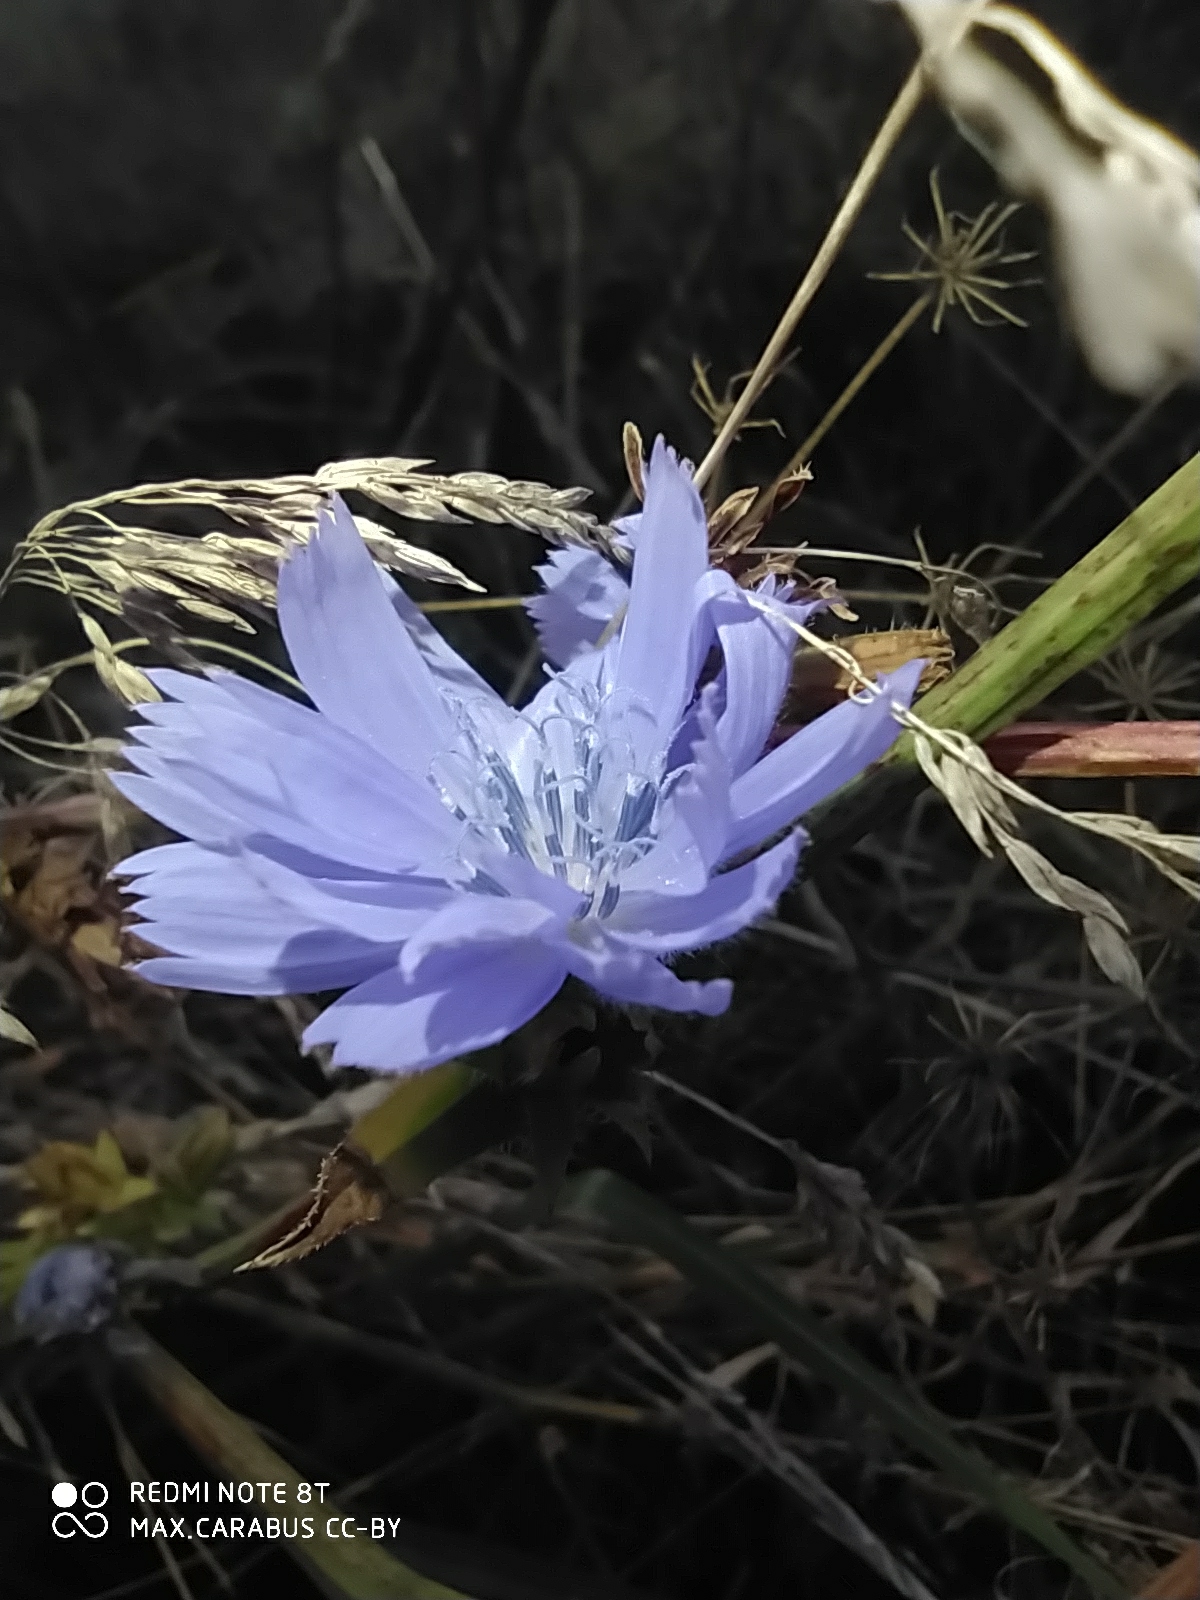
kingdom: Plantae
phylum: Tracheophyta
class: Magnoliopsida
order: Asterales
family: Asteraceae
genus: Cichorium
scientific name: Cichorium intybus
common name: Chicory
